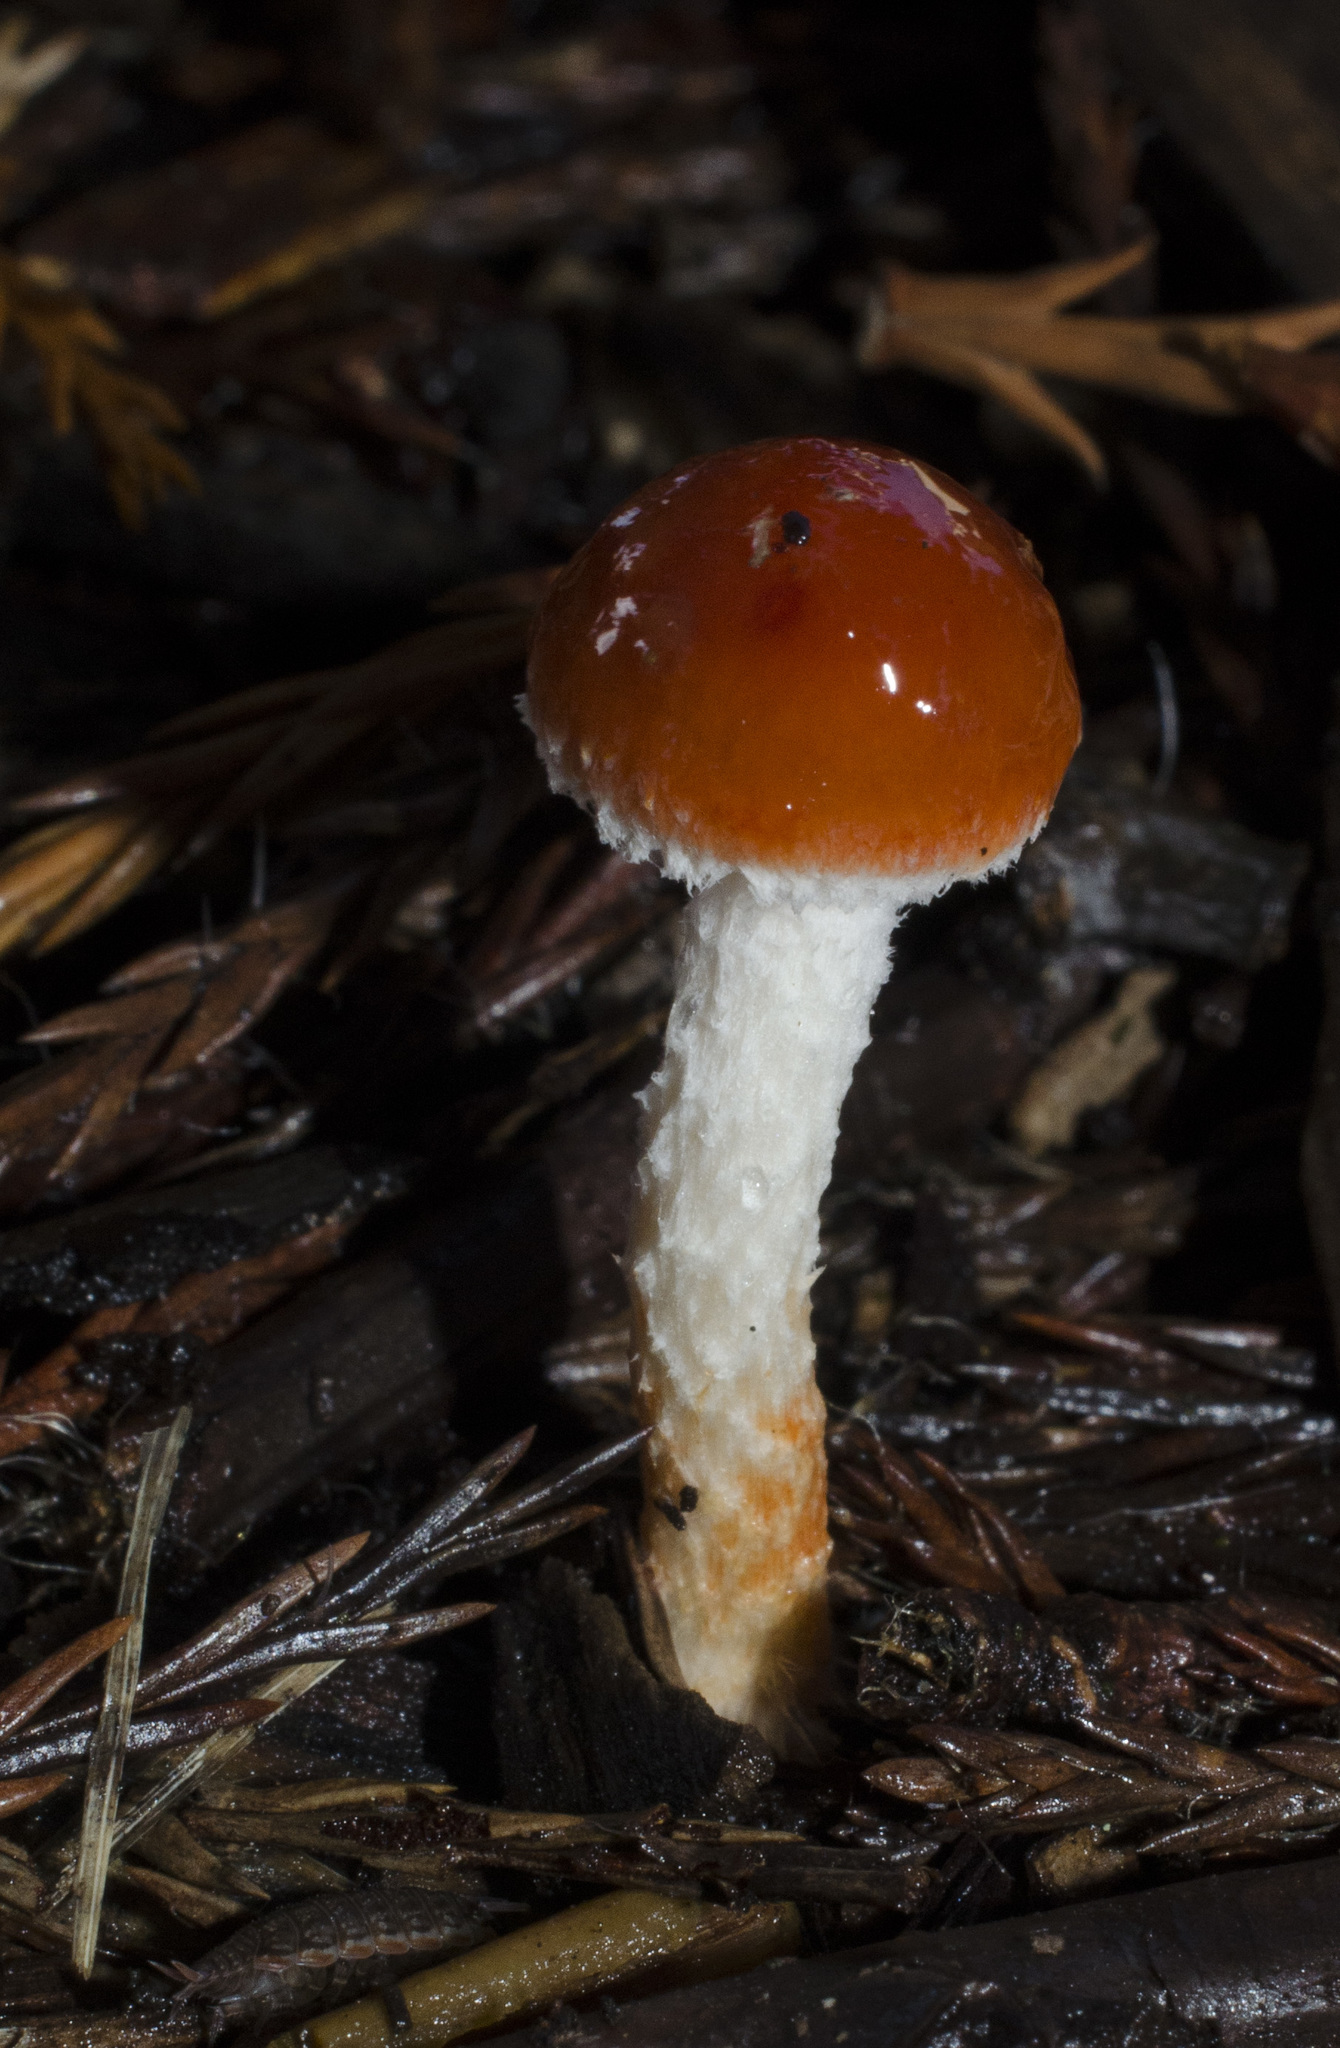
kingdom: Fungi
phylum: Basidiomycota
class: Agaricomycetes
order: Agaricales
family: Strophariaceae
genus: Leratiomyces
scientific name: Leratiomyces ceres
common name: Redlead roundhead
